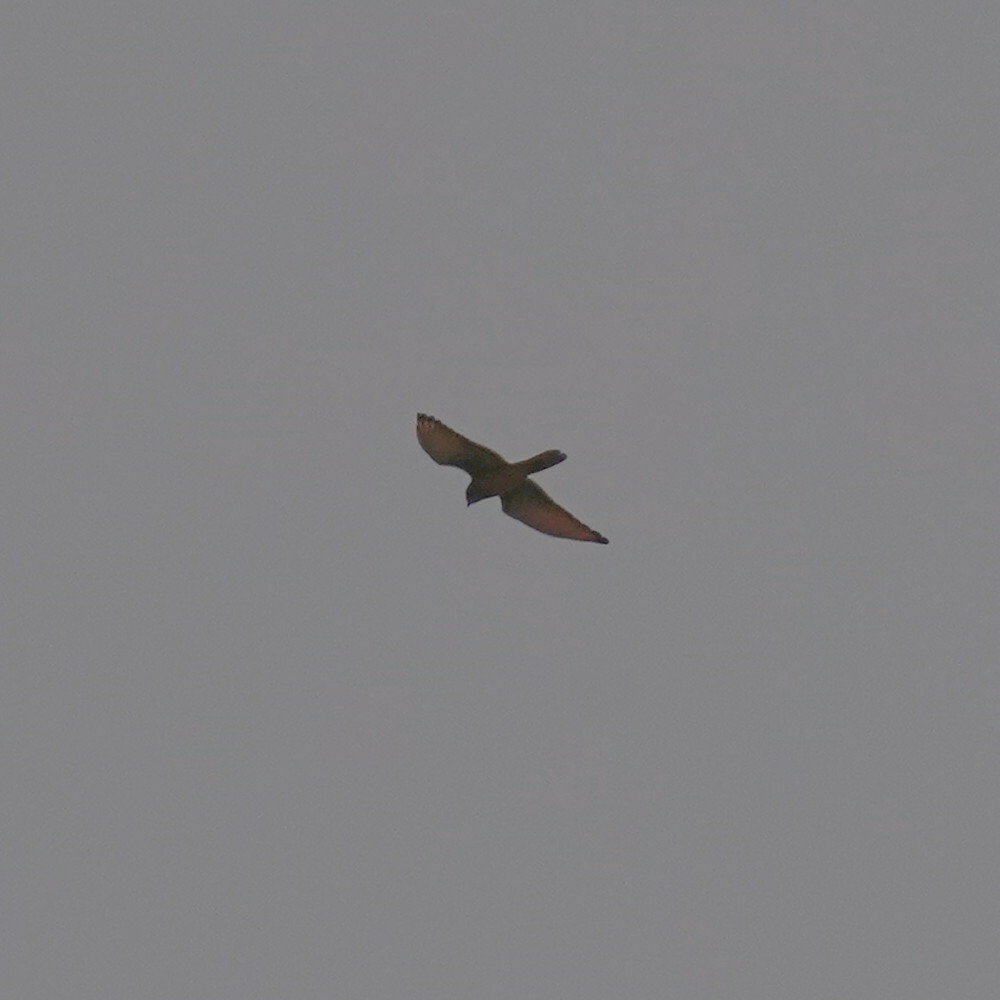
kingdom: Animalia
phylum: Chordata
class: Aves
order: Accipitriformes
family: Accipitridae
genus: Butastur
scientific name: Butastur rufipennis
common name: Grasshopper buzzard
